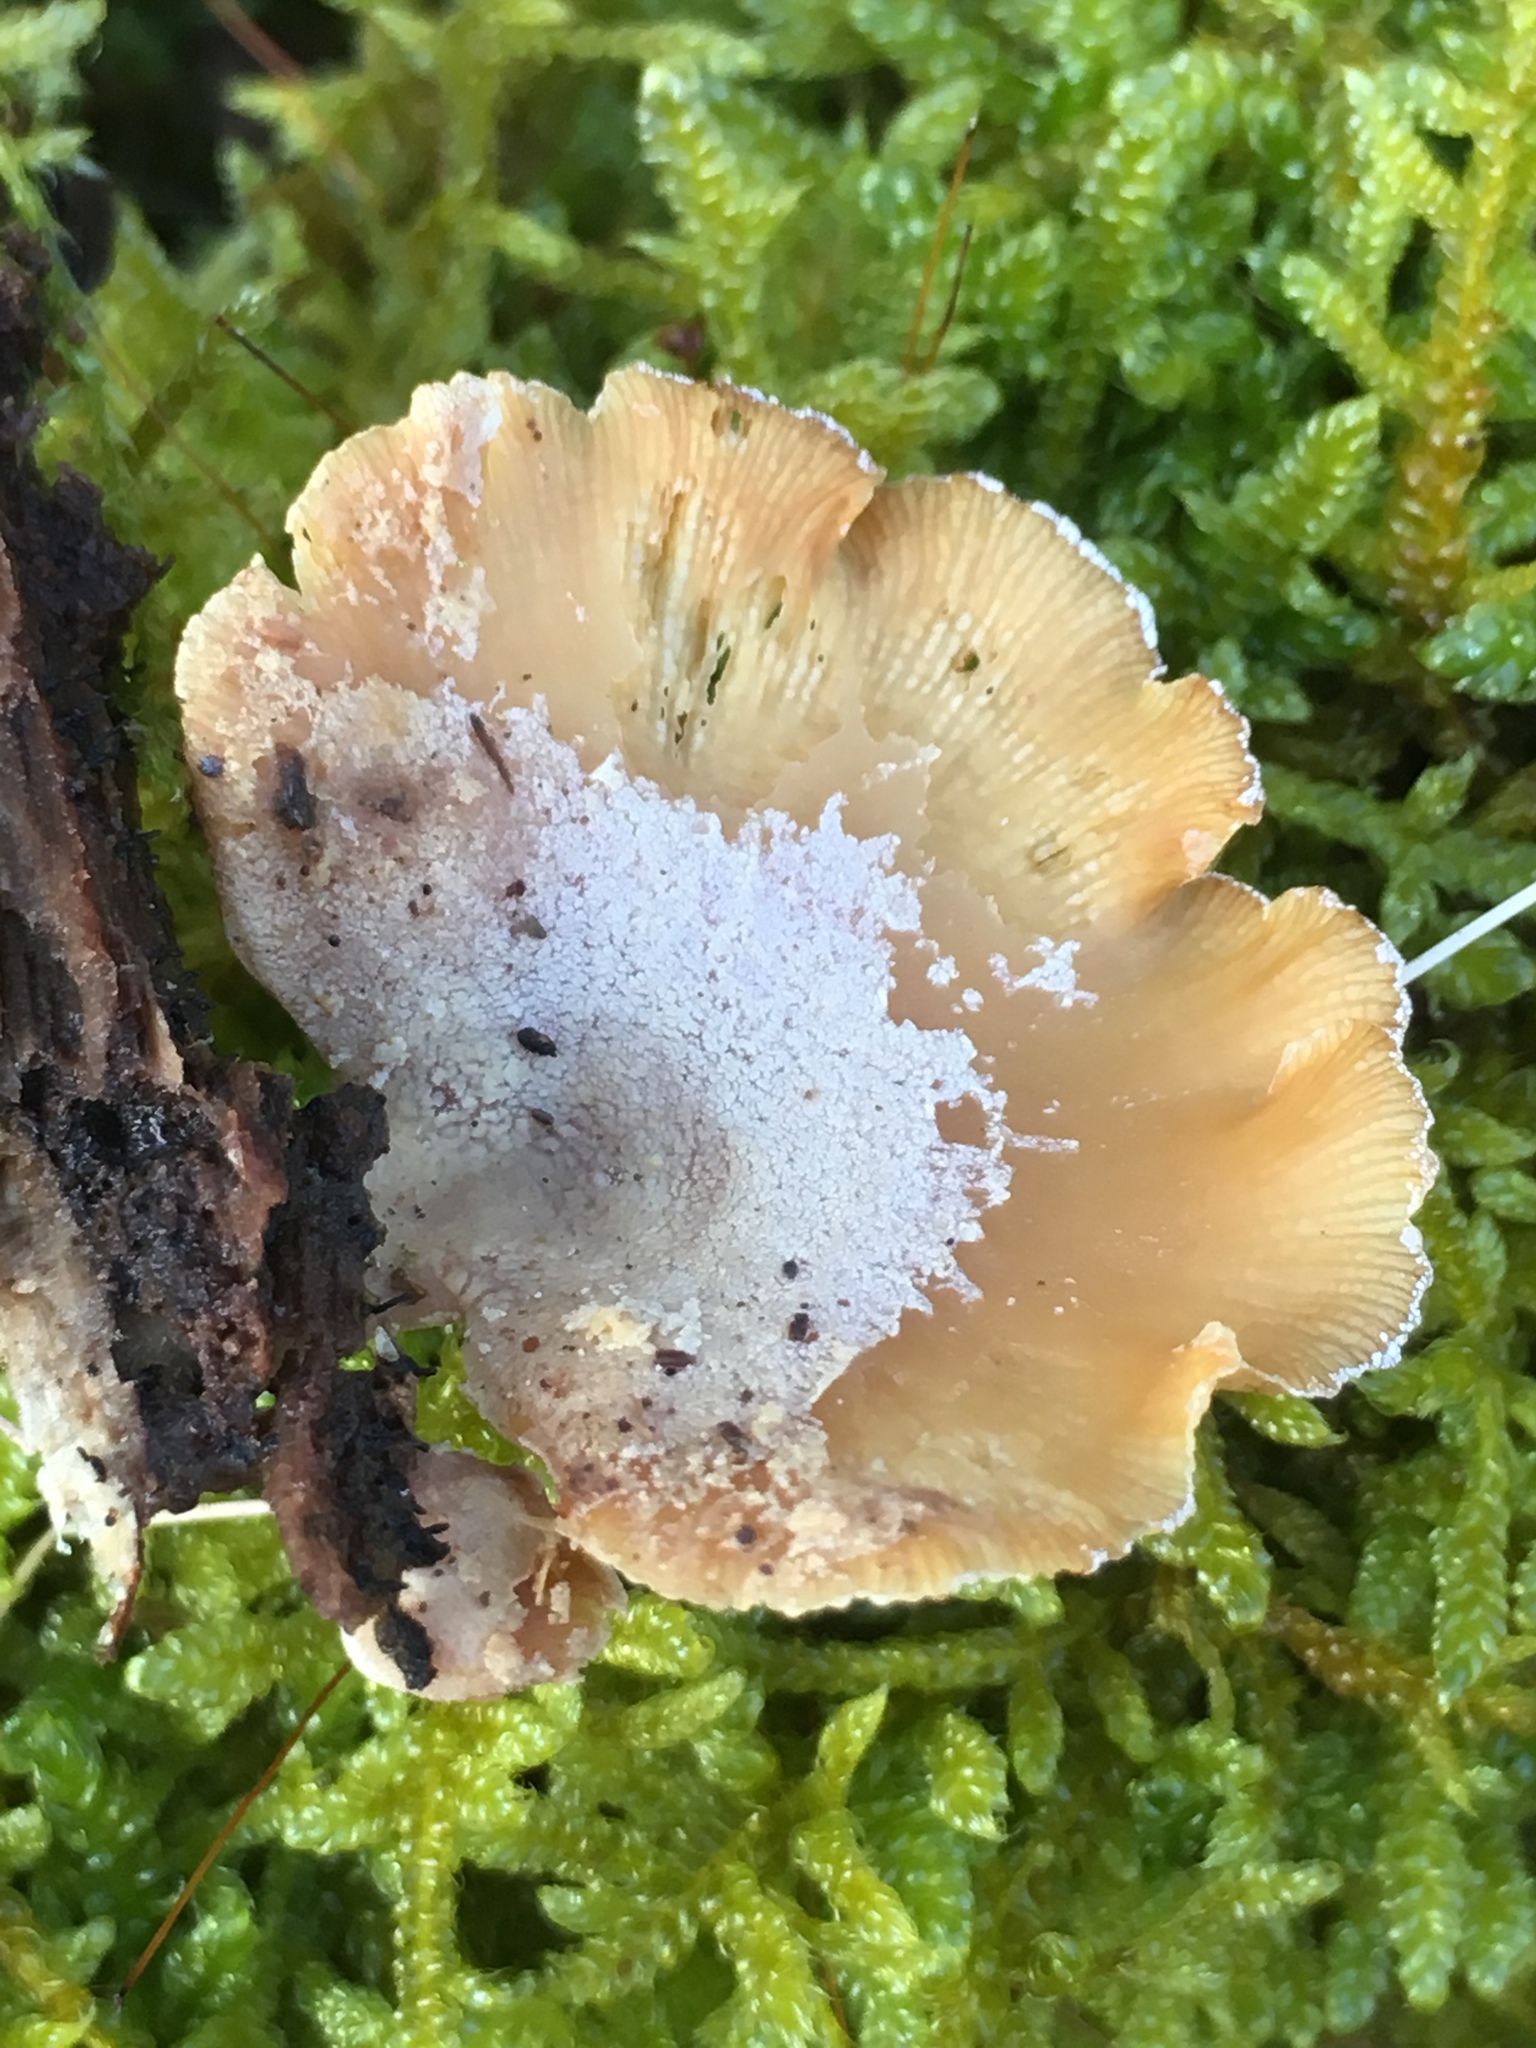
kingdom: Fungi
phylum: Basidiomycota
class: Agaricomycetes
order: Agaricales
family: Mycenaceae
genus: Panellus
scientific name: Panellus stipticus
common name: Bitter oysterling
